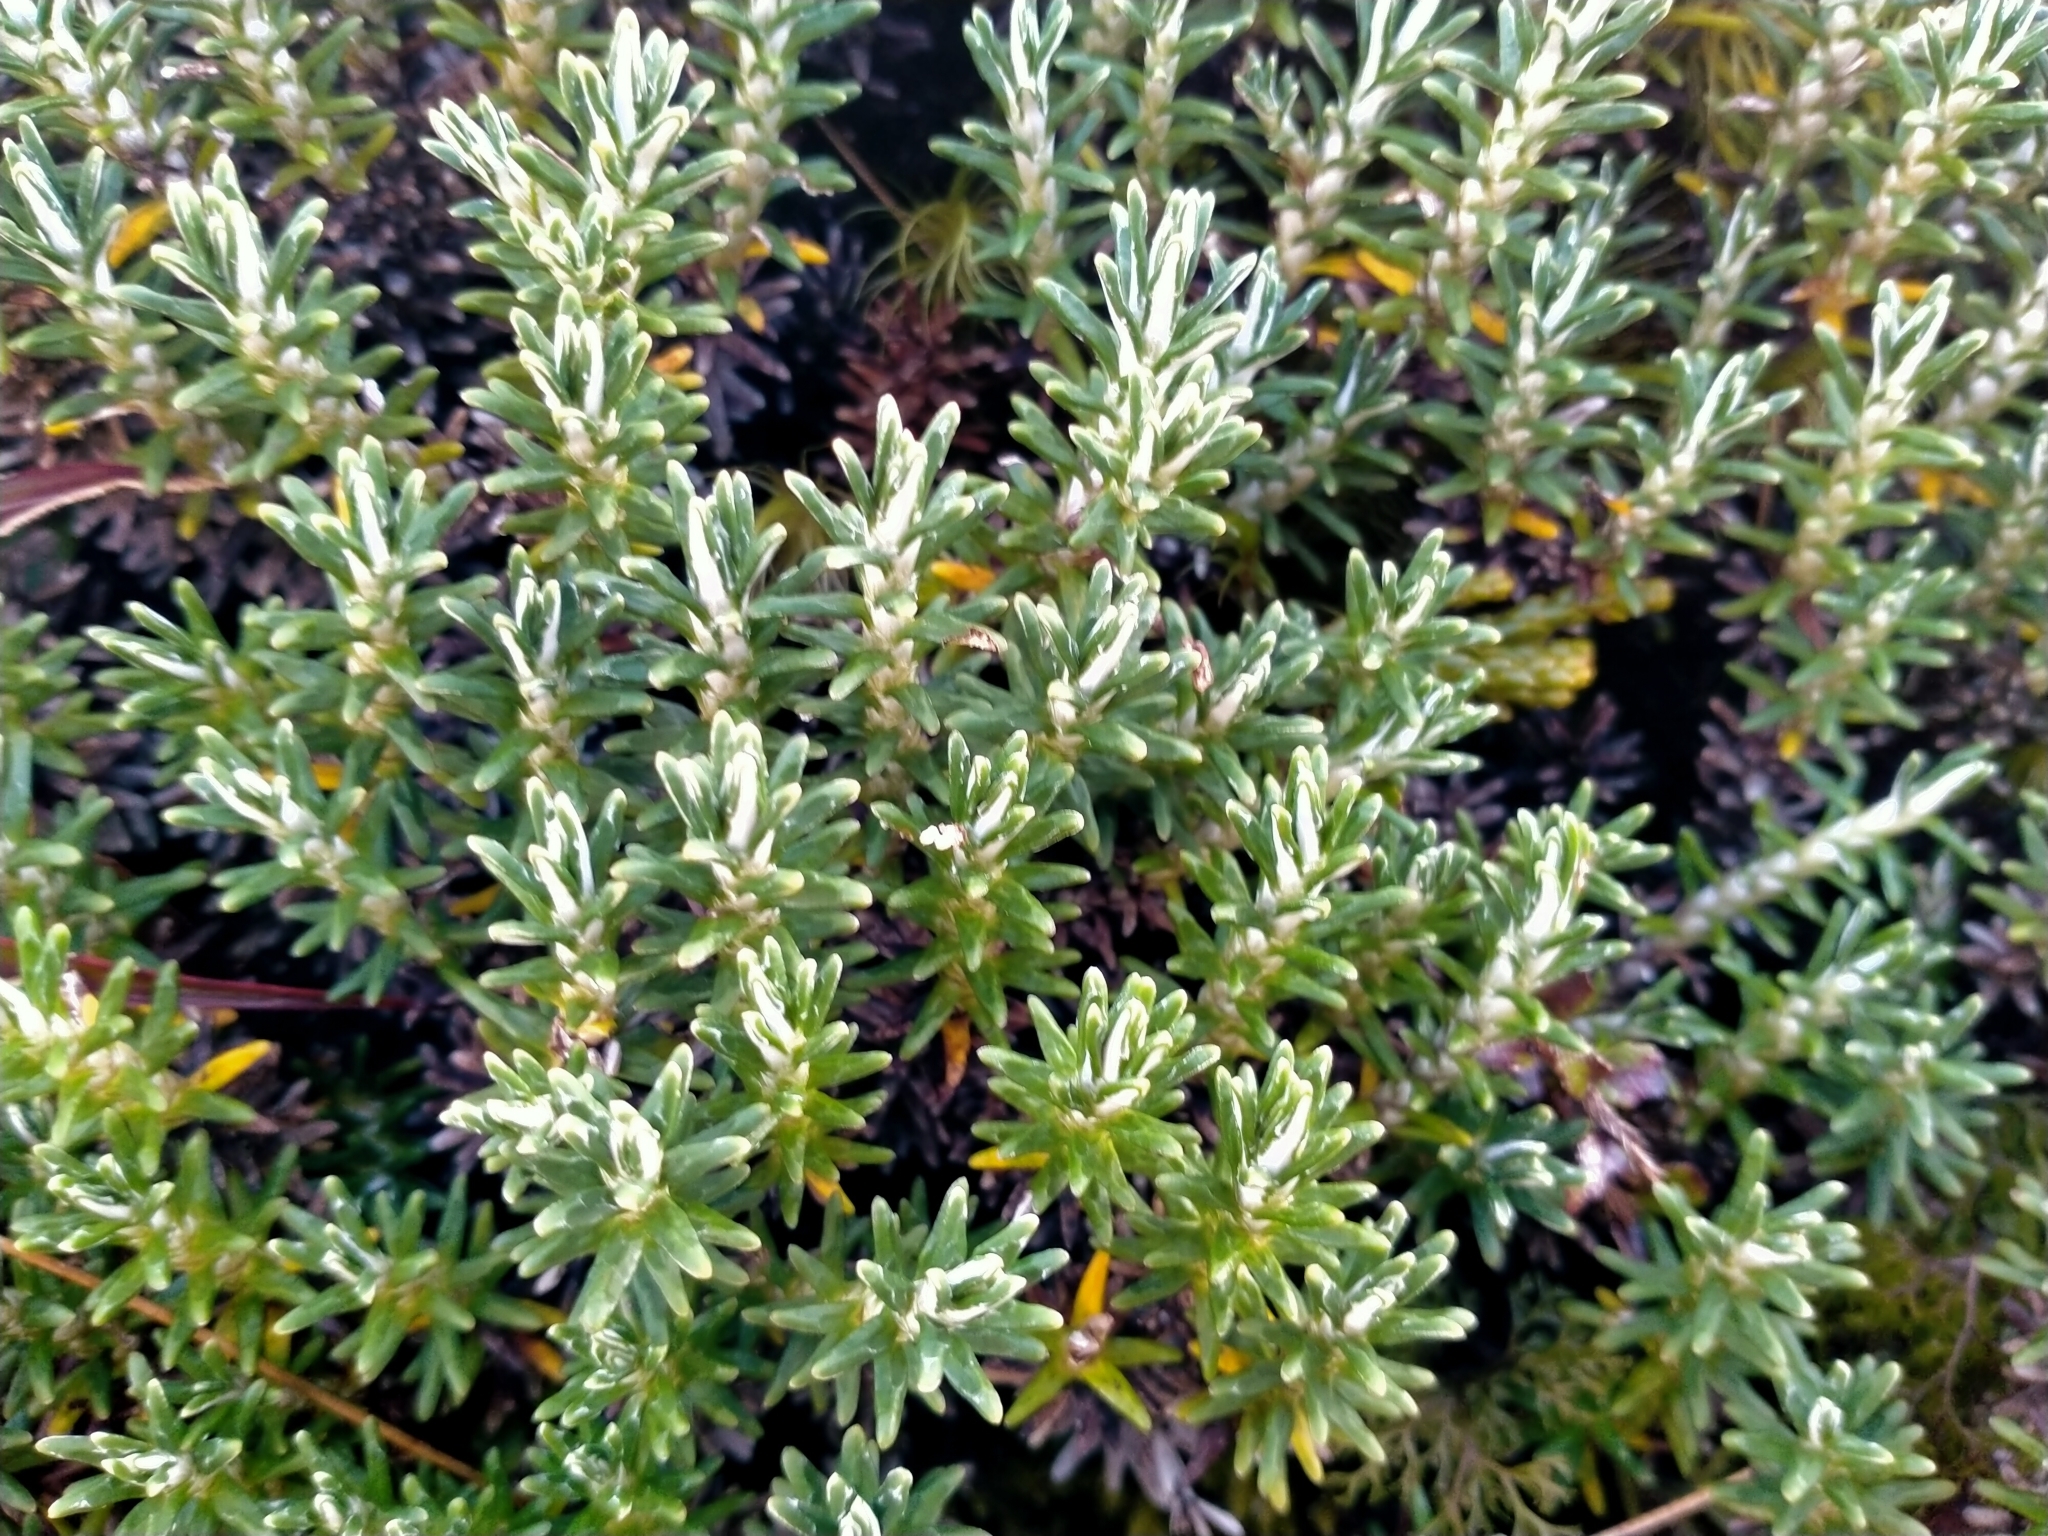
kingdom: Plantae
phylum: Tracheophyta
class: Magnoliopsida
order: Asterales
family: Asteraceae
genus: Celmisia
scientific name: Celmisia ramulosa
